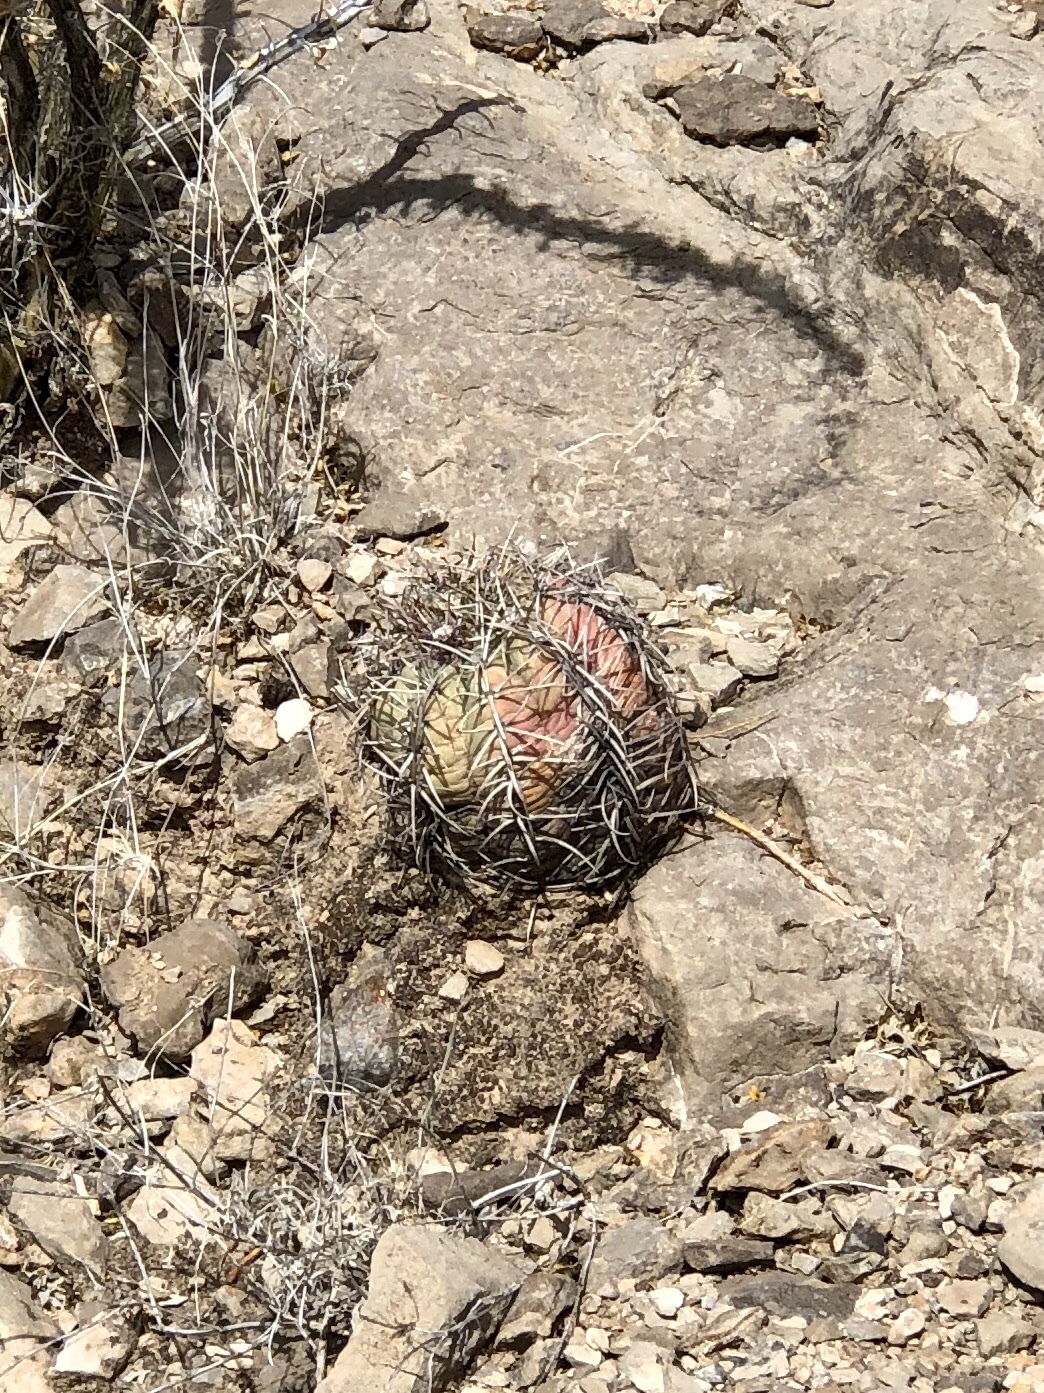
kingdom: Plantae
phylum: Tracheophyta
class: Magnoliopsida
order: Caryophyllales
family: Cactaceae
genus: Echinocactus
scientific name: Echinocactus horizonthalonius
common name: Devilshead
